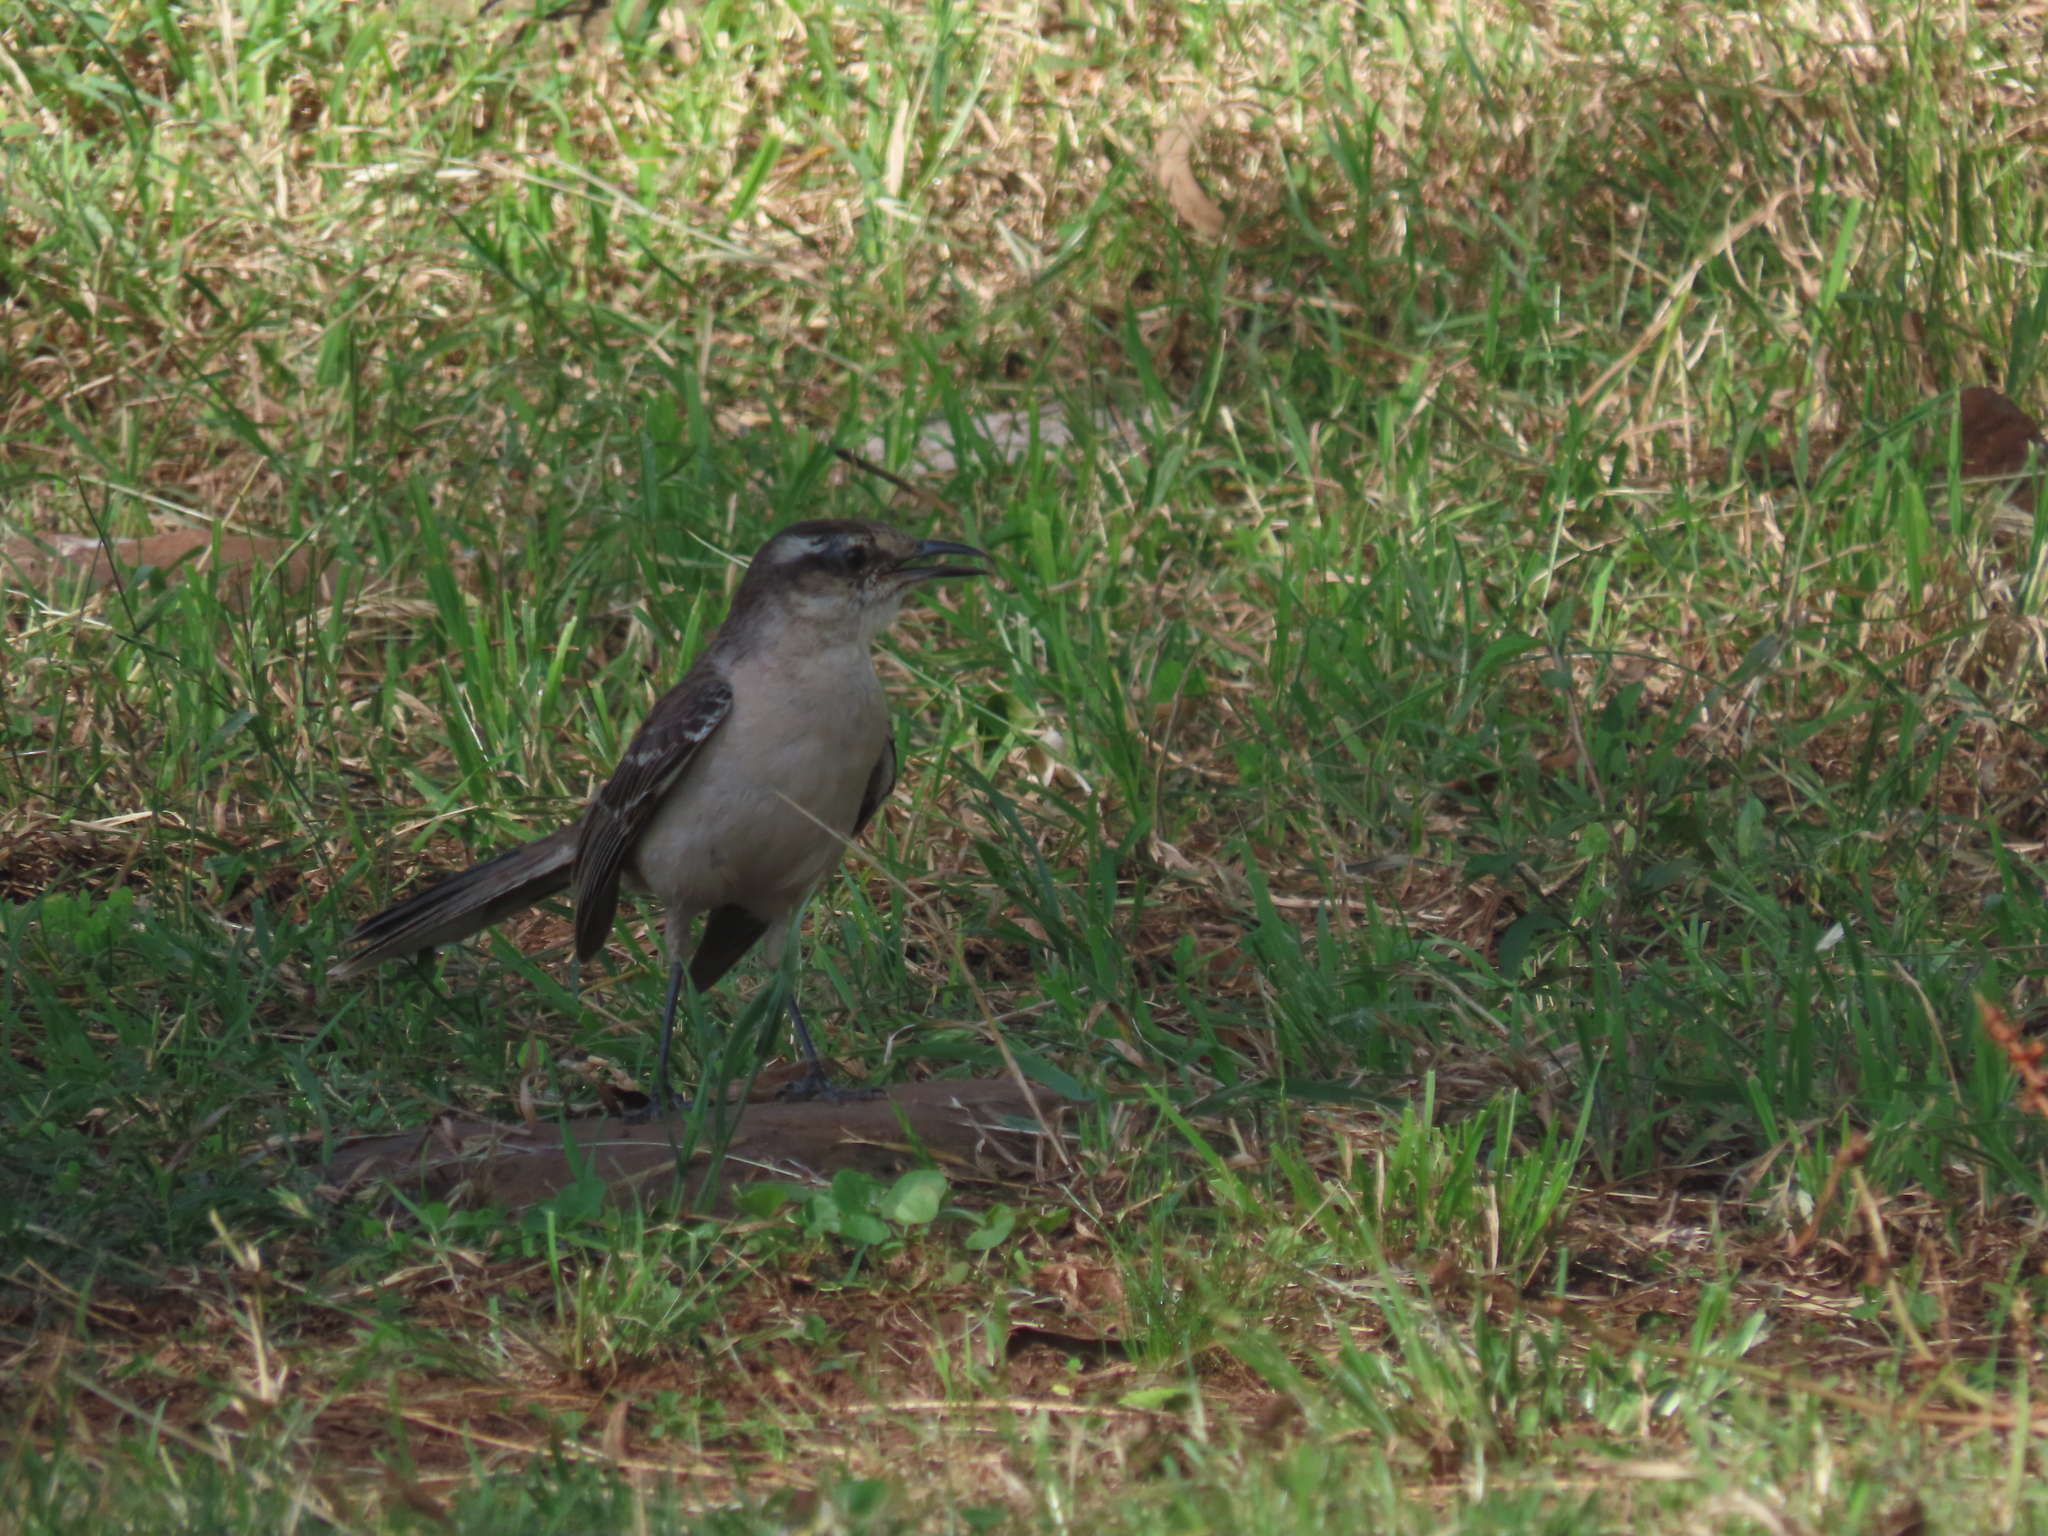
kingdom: Animalia
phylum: Chordata
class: Aves
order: Passeriformes
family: Mimidae
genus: Mimus
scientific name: Mimus saturninus
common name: Chalk-browed mockingbird
